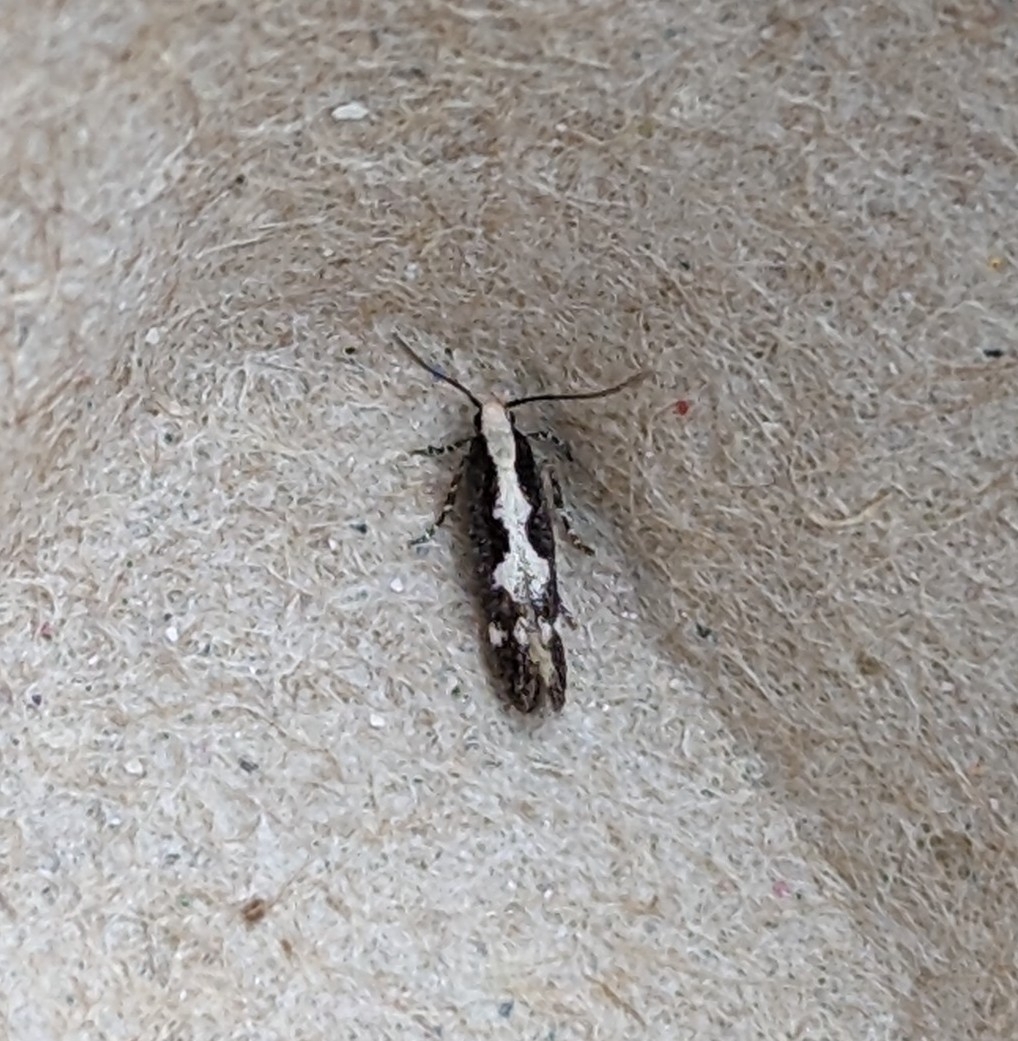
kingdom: Animalia
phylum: Arthropoda
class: Insecta
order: Lepidoptera
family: Gelechiidae
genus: Agnippe
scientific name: Agnippe prunifoliella
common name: Skunk twirler
